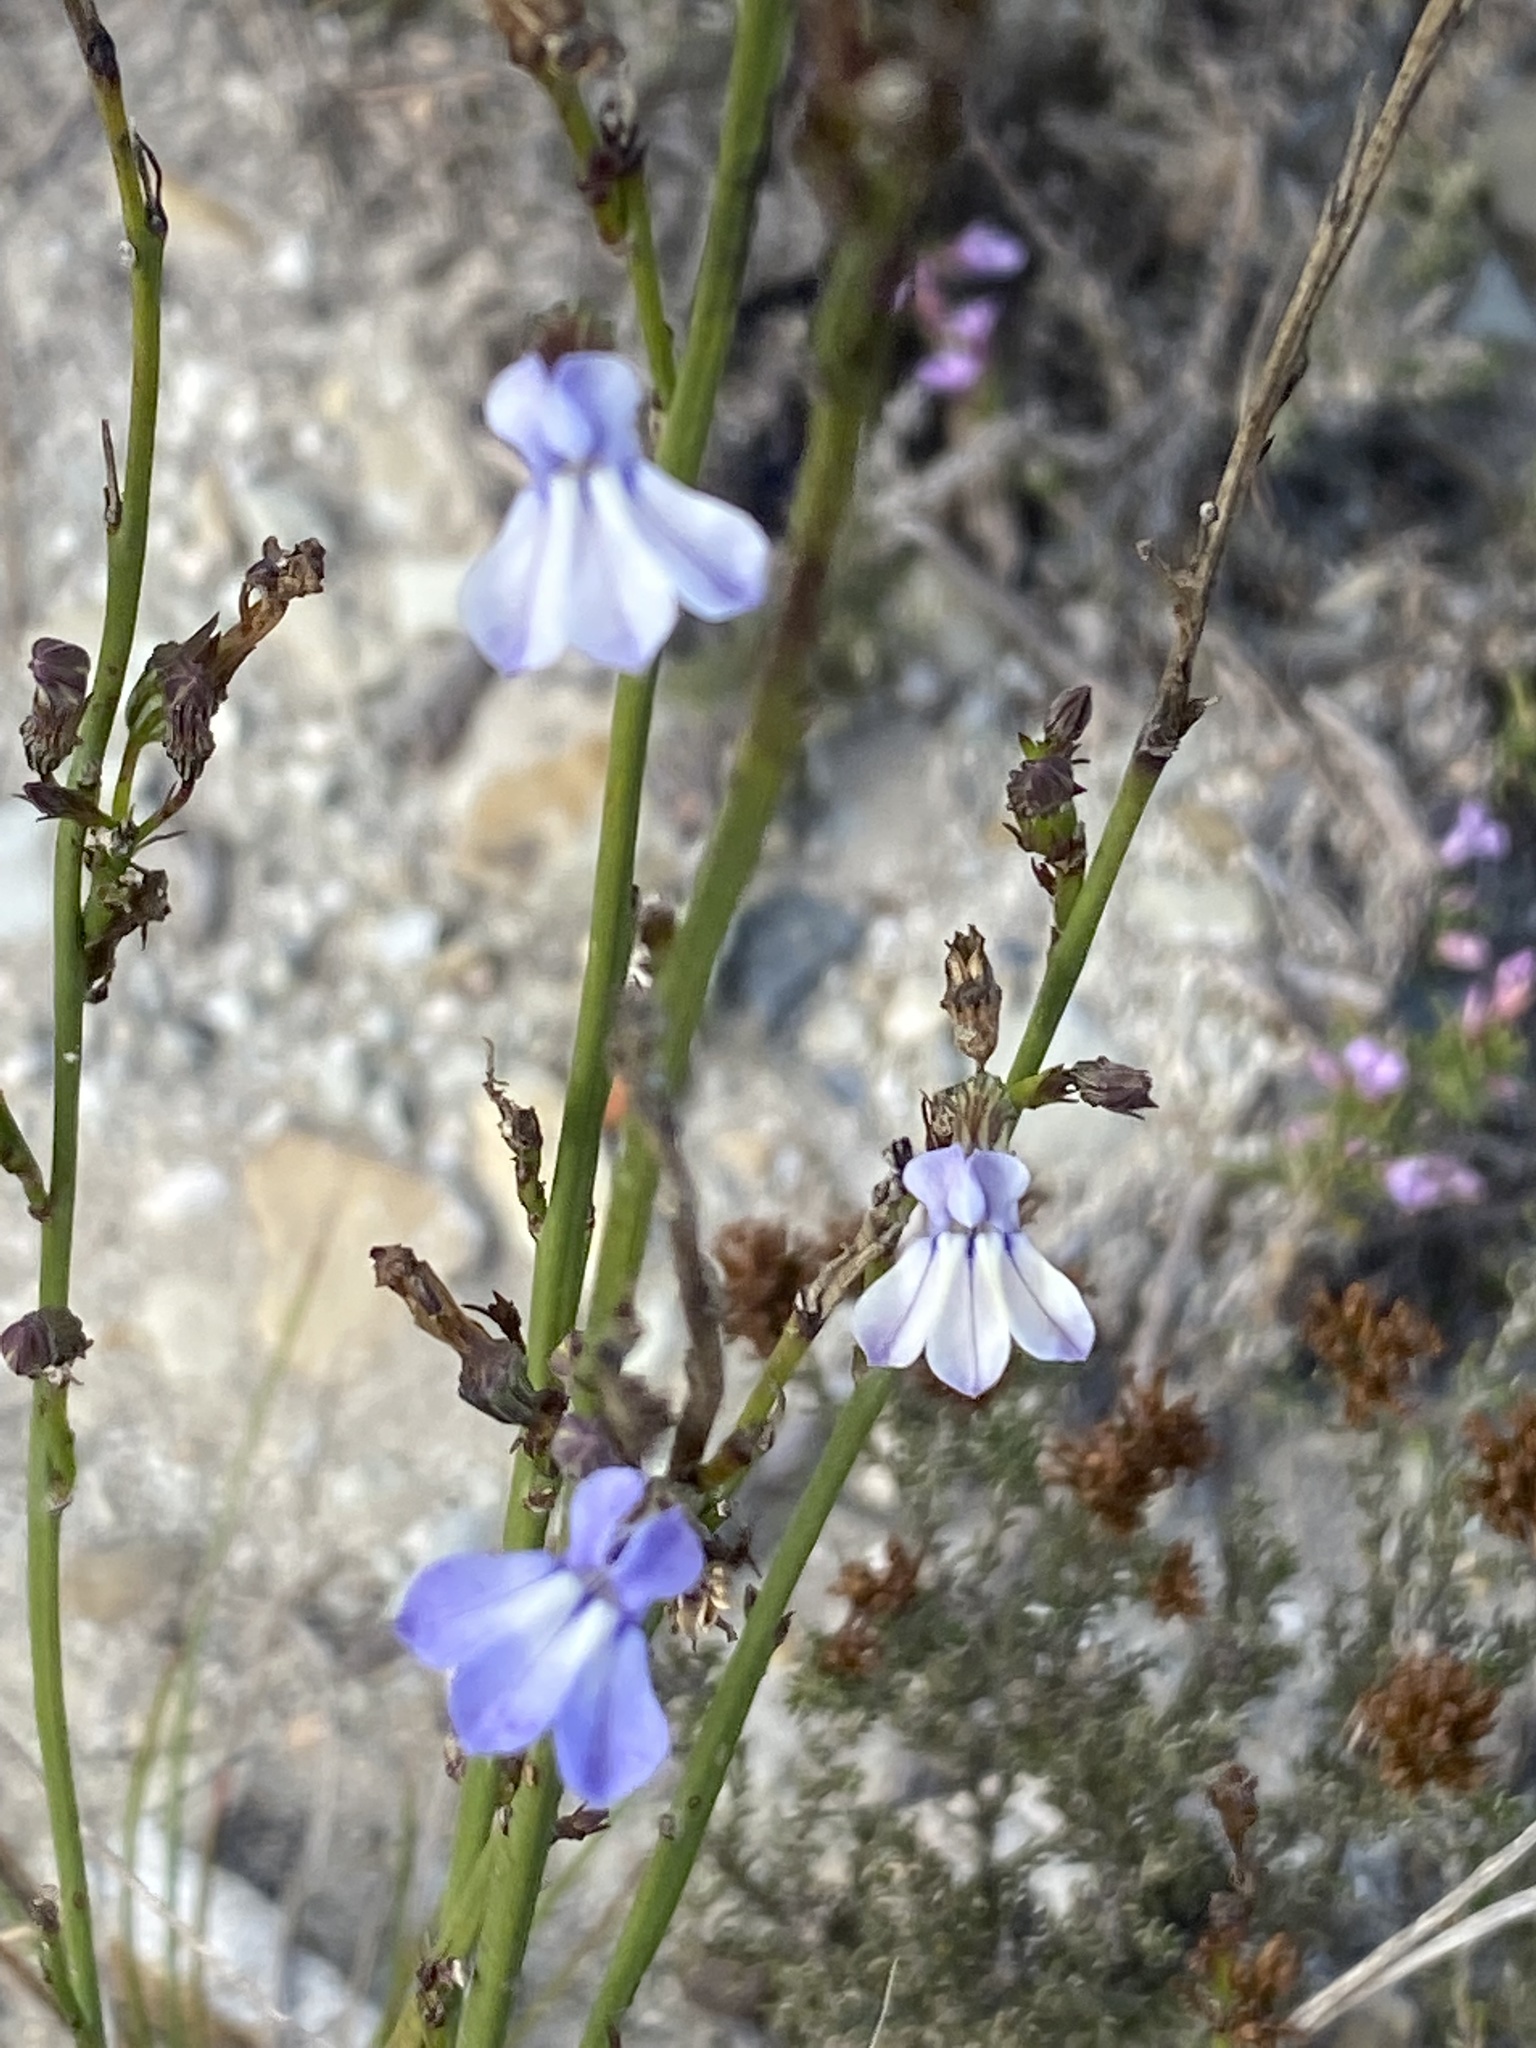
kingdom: Plantae
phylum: Tracheophyta
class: Magnoliopsida
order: Asterales
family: Campanulaceae
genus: Lobelia
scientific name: Lobelia linearis
